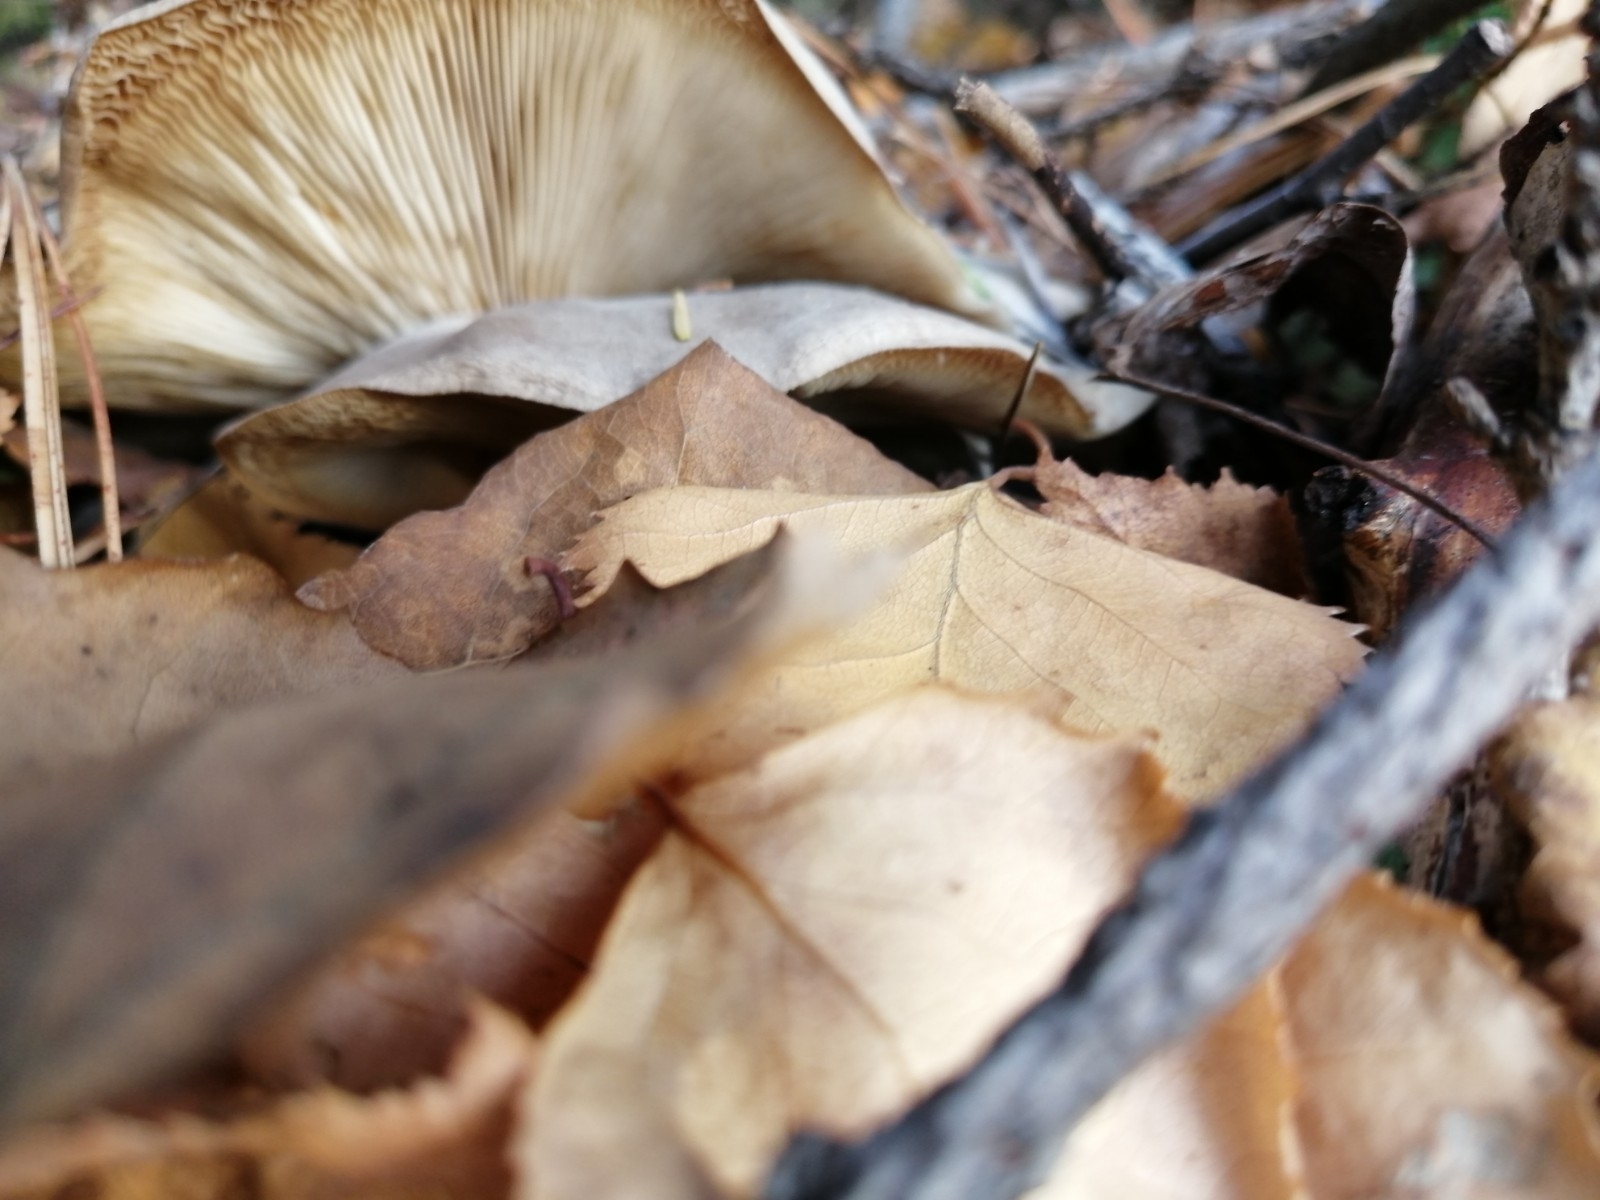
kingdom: Fungi
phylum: Basidiomycota
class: Agaricomycetes
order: Agaricales
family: Tricholomataceae
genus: Clitocybe
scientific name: Clitocybe nebularis
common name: Clouded agaric
